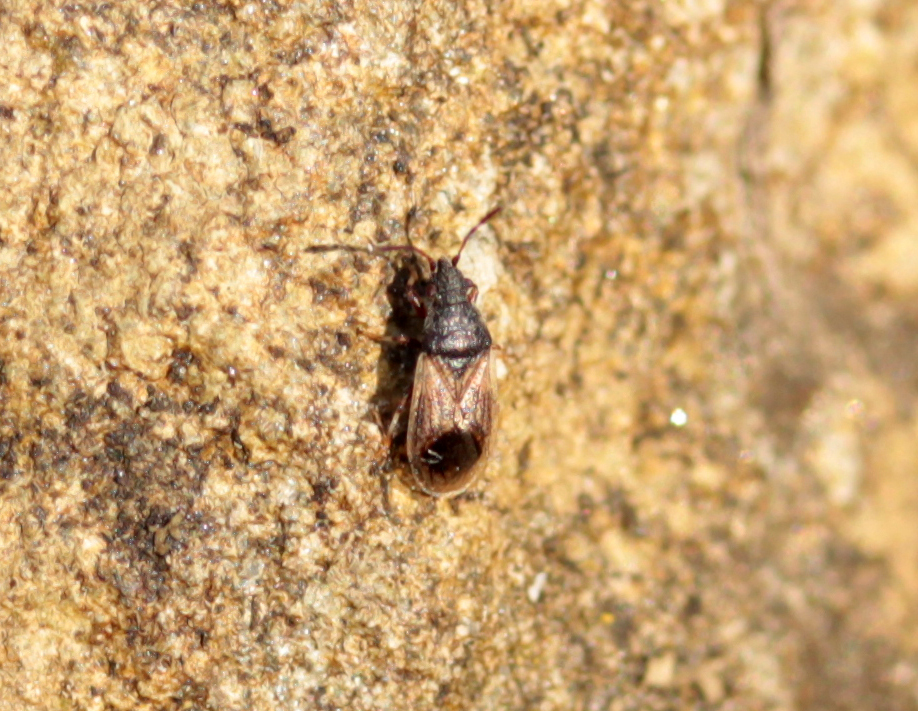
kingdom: Animalia
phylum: Arthropoda
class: Insecta
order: Hemiptera
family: Oxycarenidae
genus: Crophius
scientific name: Crophius disconotus
